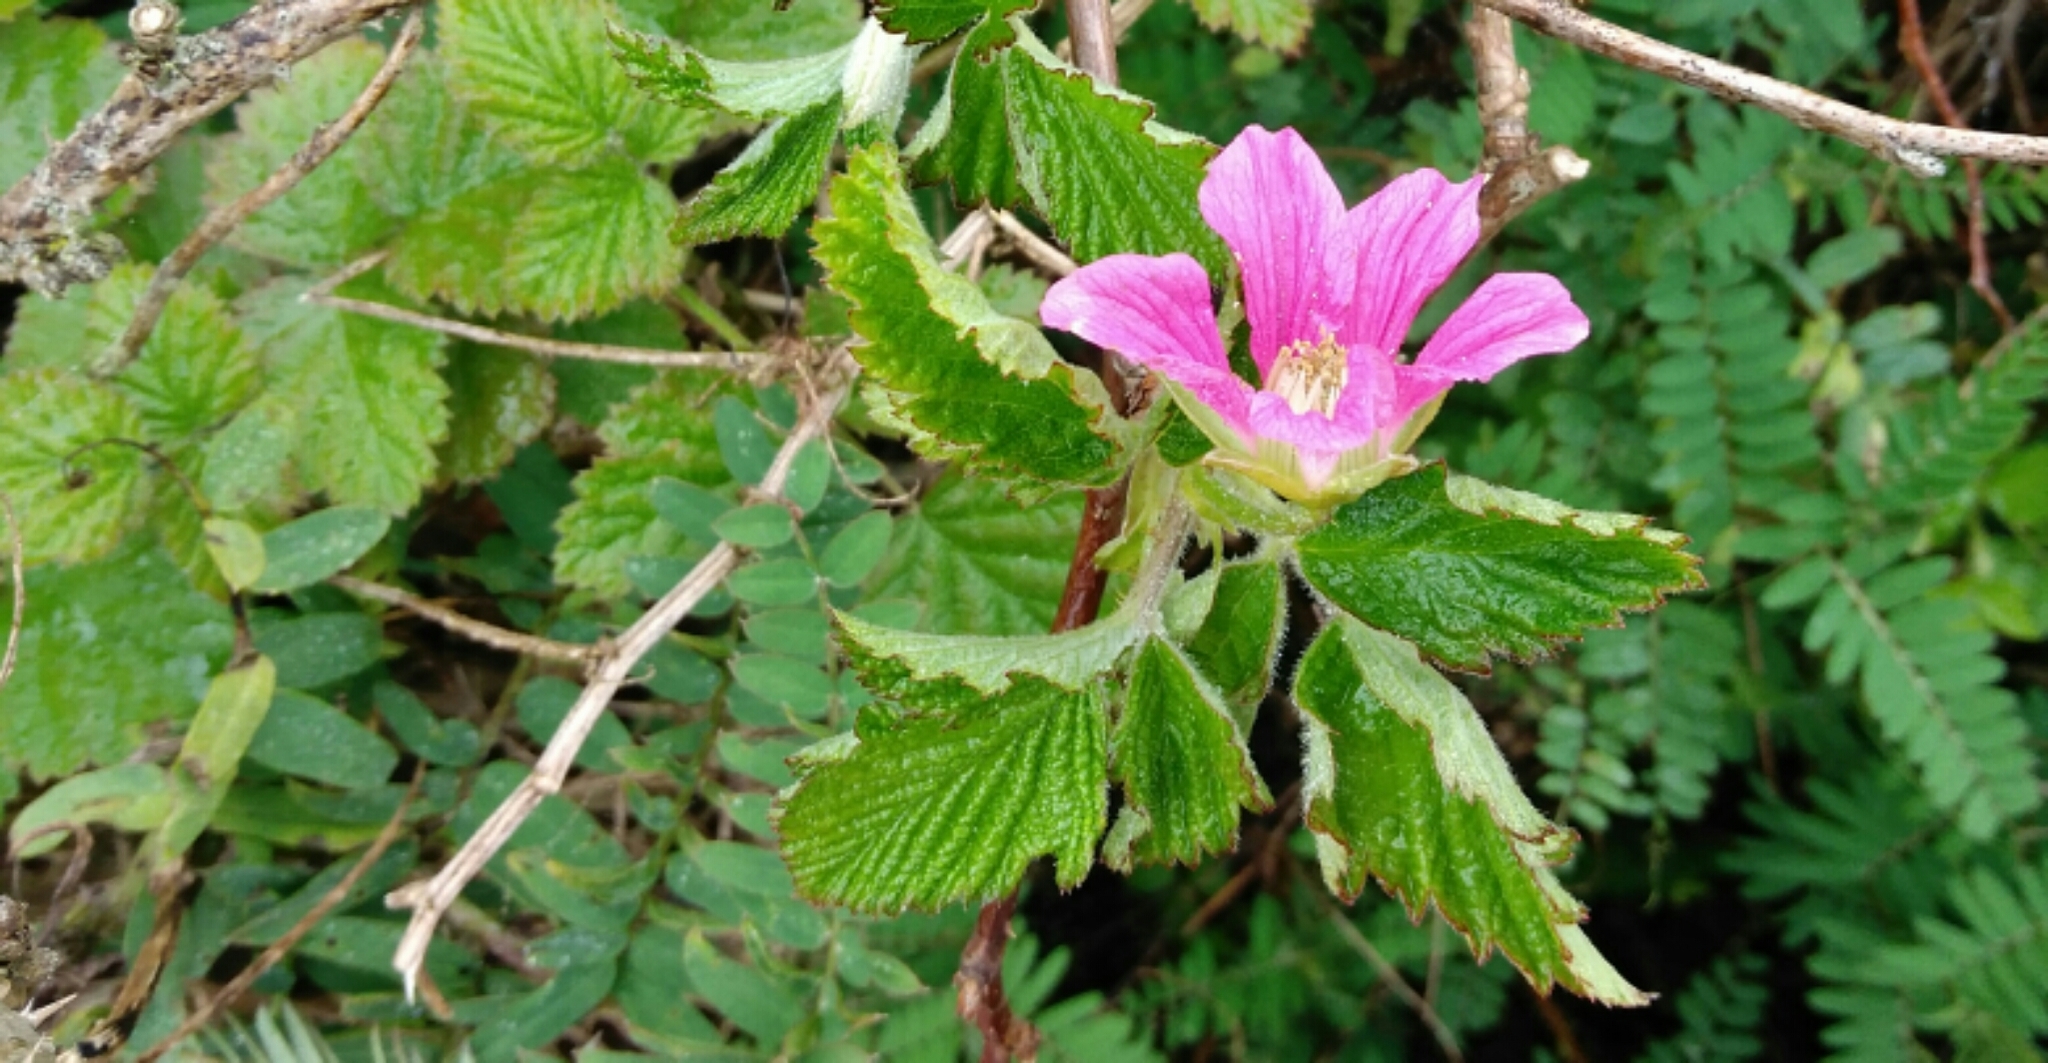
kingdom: Plantae
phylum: Tracheophyta
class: Magnoliopsida
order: Rosales
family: Rosaceae
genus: Rubus
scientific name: Rubus spectabilis
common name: Salmonberry
